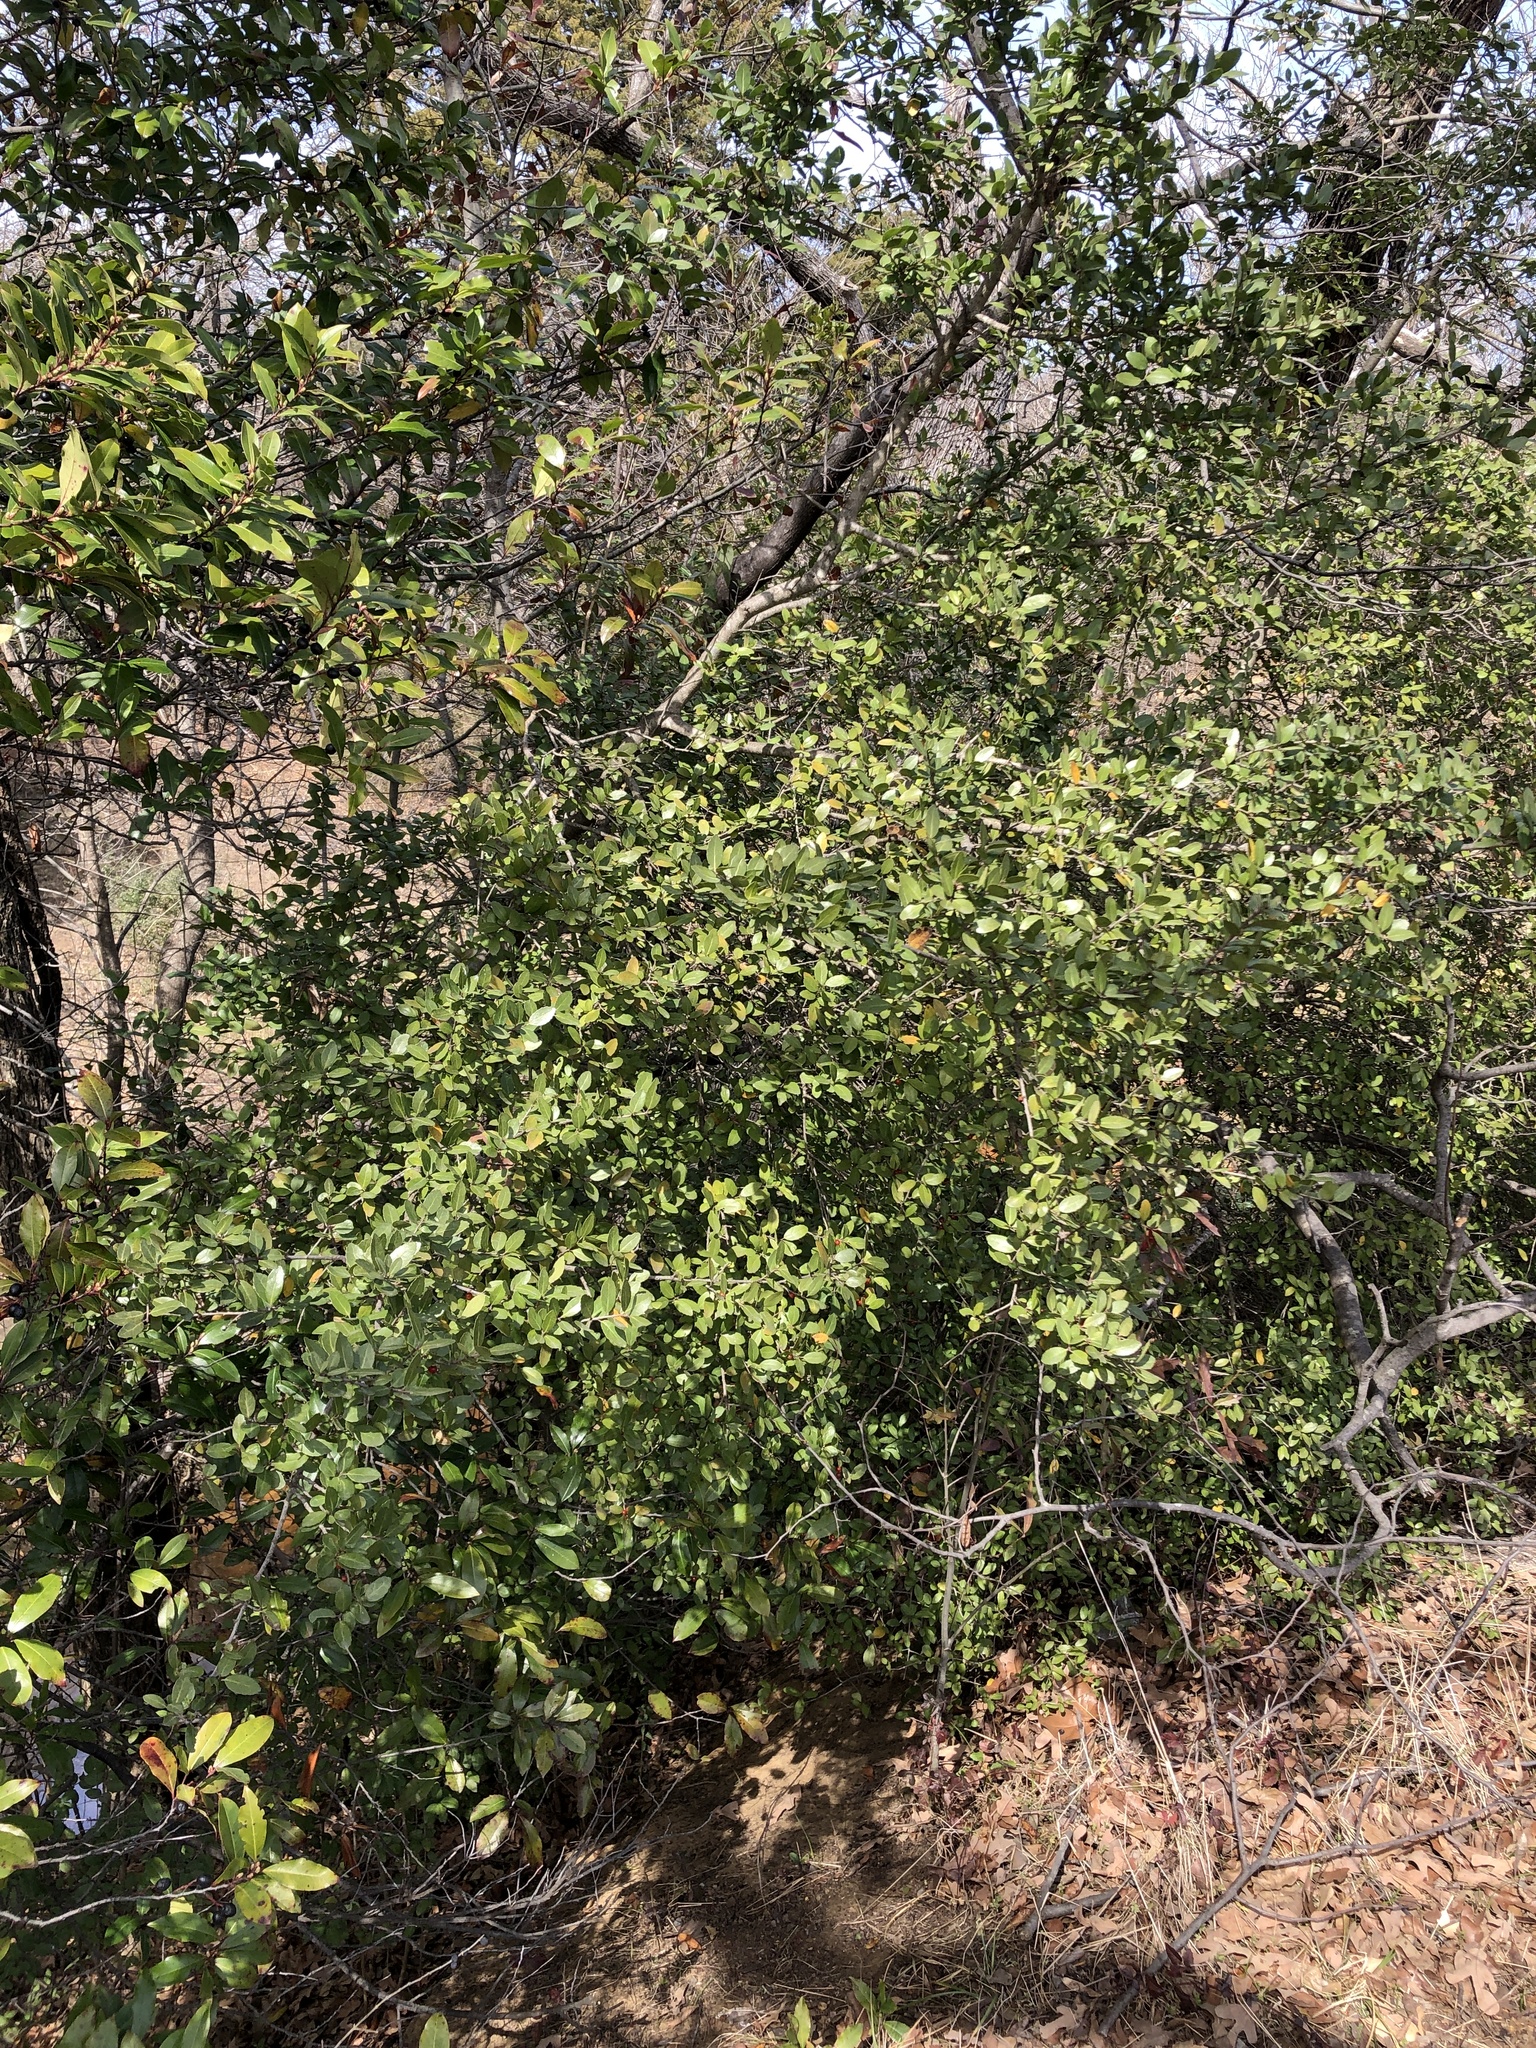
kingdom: Plantae
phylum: Tracheophyta
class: Magnoliopsida
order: Aquifoliales
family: Aquifoliaceae
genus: Ilex
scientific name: Ilex vomitoria
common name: Yaupon holly
